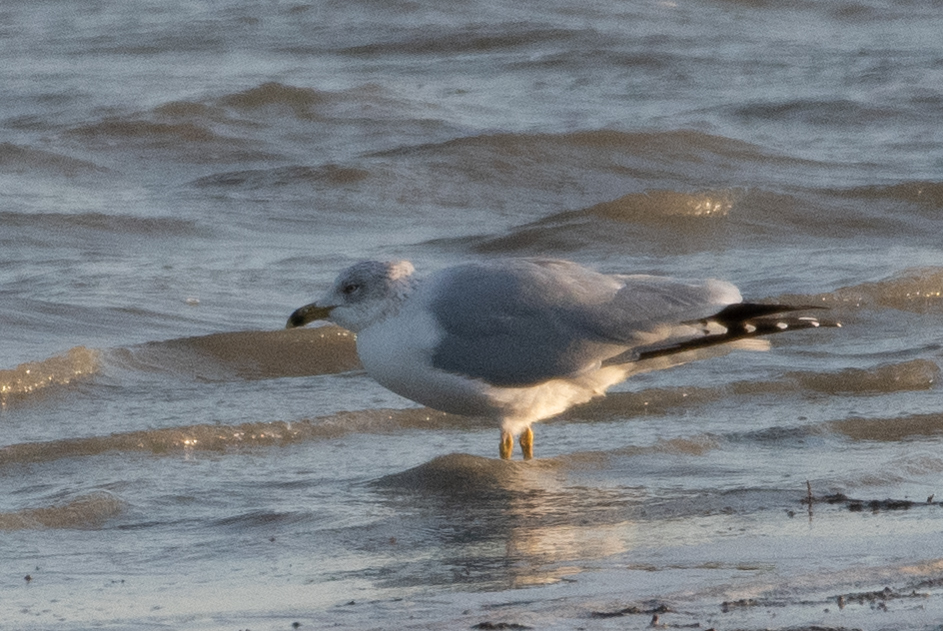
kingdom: Animalia
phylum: Chordata
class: Aves
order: Charadriiformes
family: Laridae
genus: Larus
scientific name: Larus delawarensis
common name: Ring-billed gull
